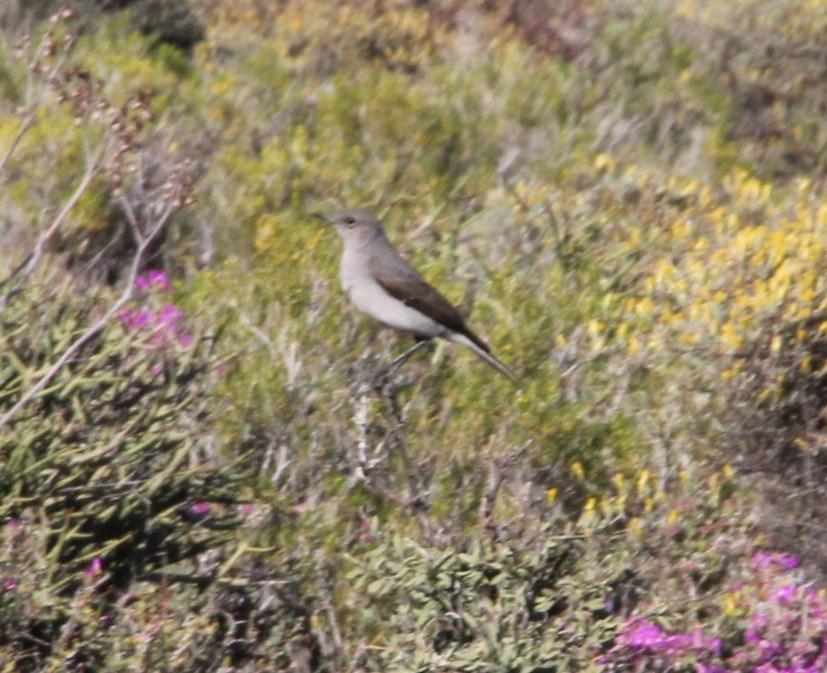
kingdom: Animalia
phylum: Chordata
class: Aves
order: Passeriformes
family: Muscicapidae
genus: Emarginata
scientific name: Emarginata schlegelii
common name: Karoo chat
